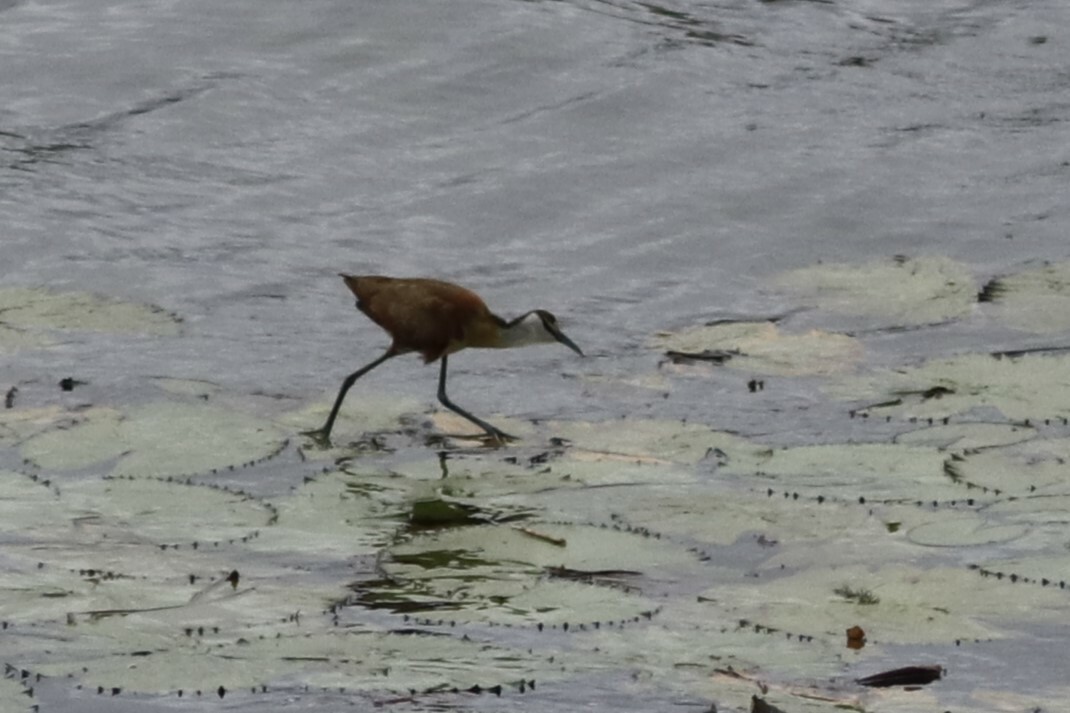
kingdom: Animalia
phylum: Chordata
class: Aves
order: Charadriiformes
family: Jacanidae
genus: Actophilornis
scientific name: Actophilornis africanus
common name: African jacana
